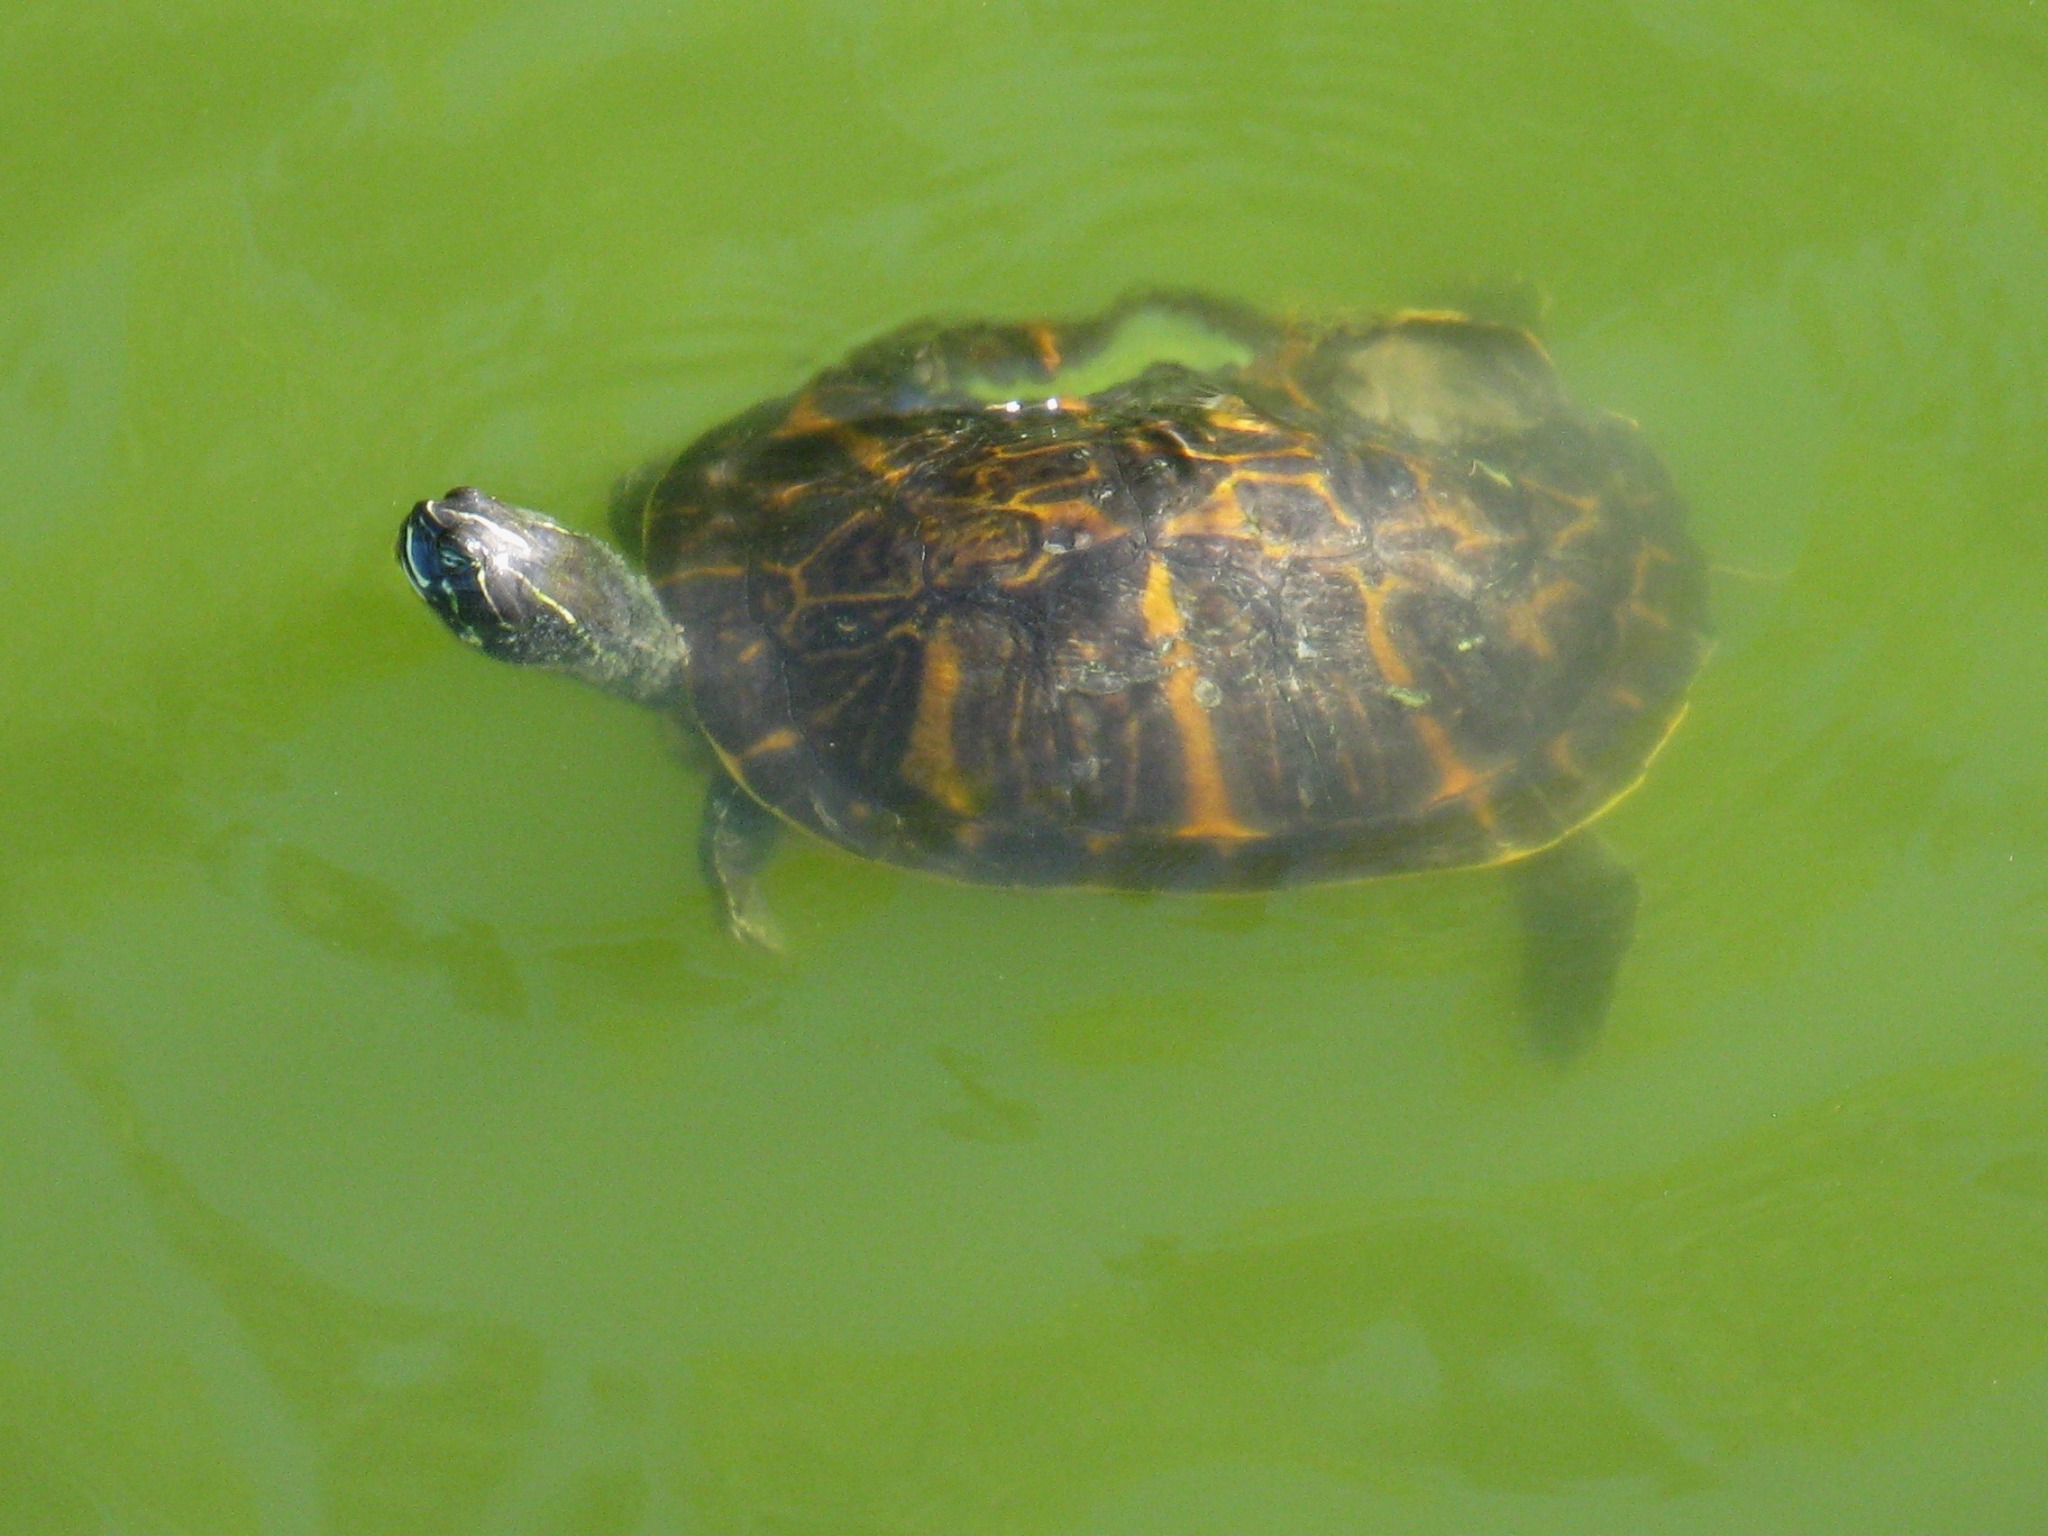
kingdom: Animalia
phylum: Chordata
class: Testudines
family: Emydidae
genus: Trachemys
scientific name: Trachemys scripta
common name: Slider
